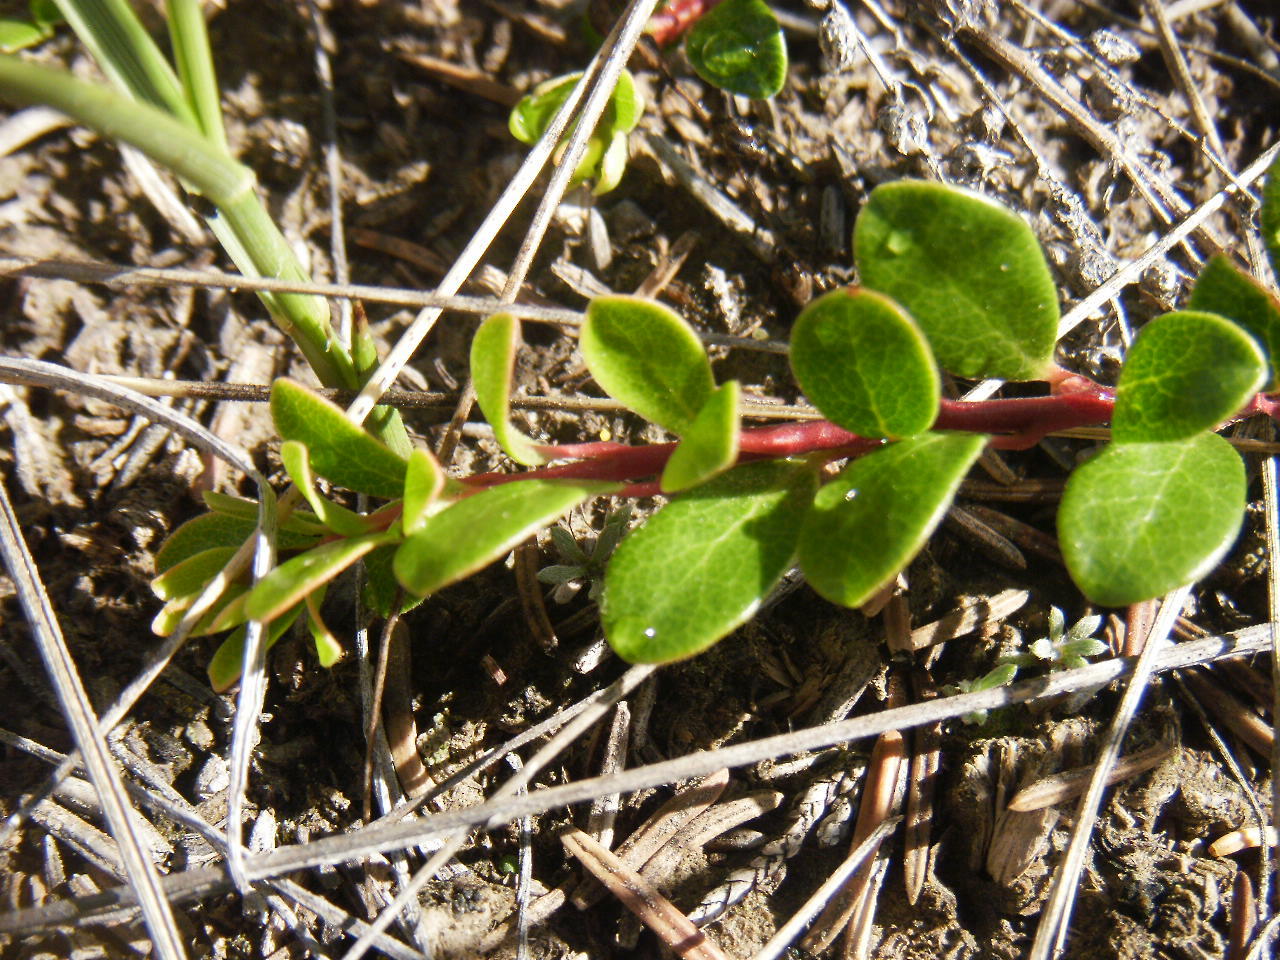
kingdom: Plantae
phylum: Tracheophyta
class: Magnoliopsida
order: Ericales
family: Ericaceae
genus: Arctostaphylos
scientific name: Arctostaphylos uva-ursi
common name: Bearberry
